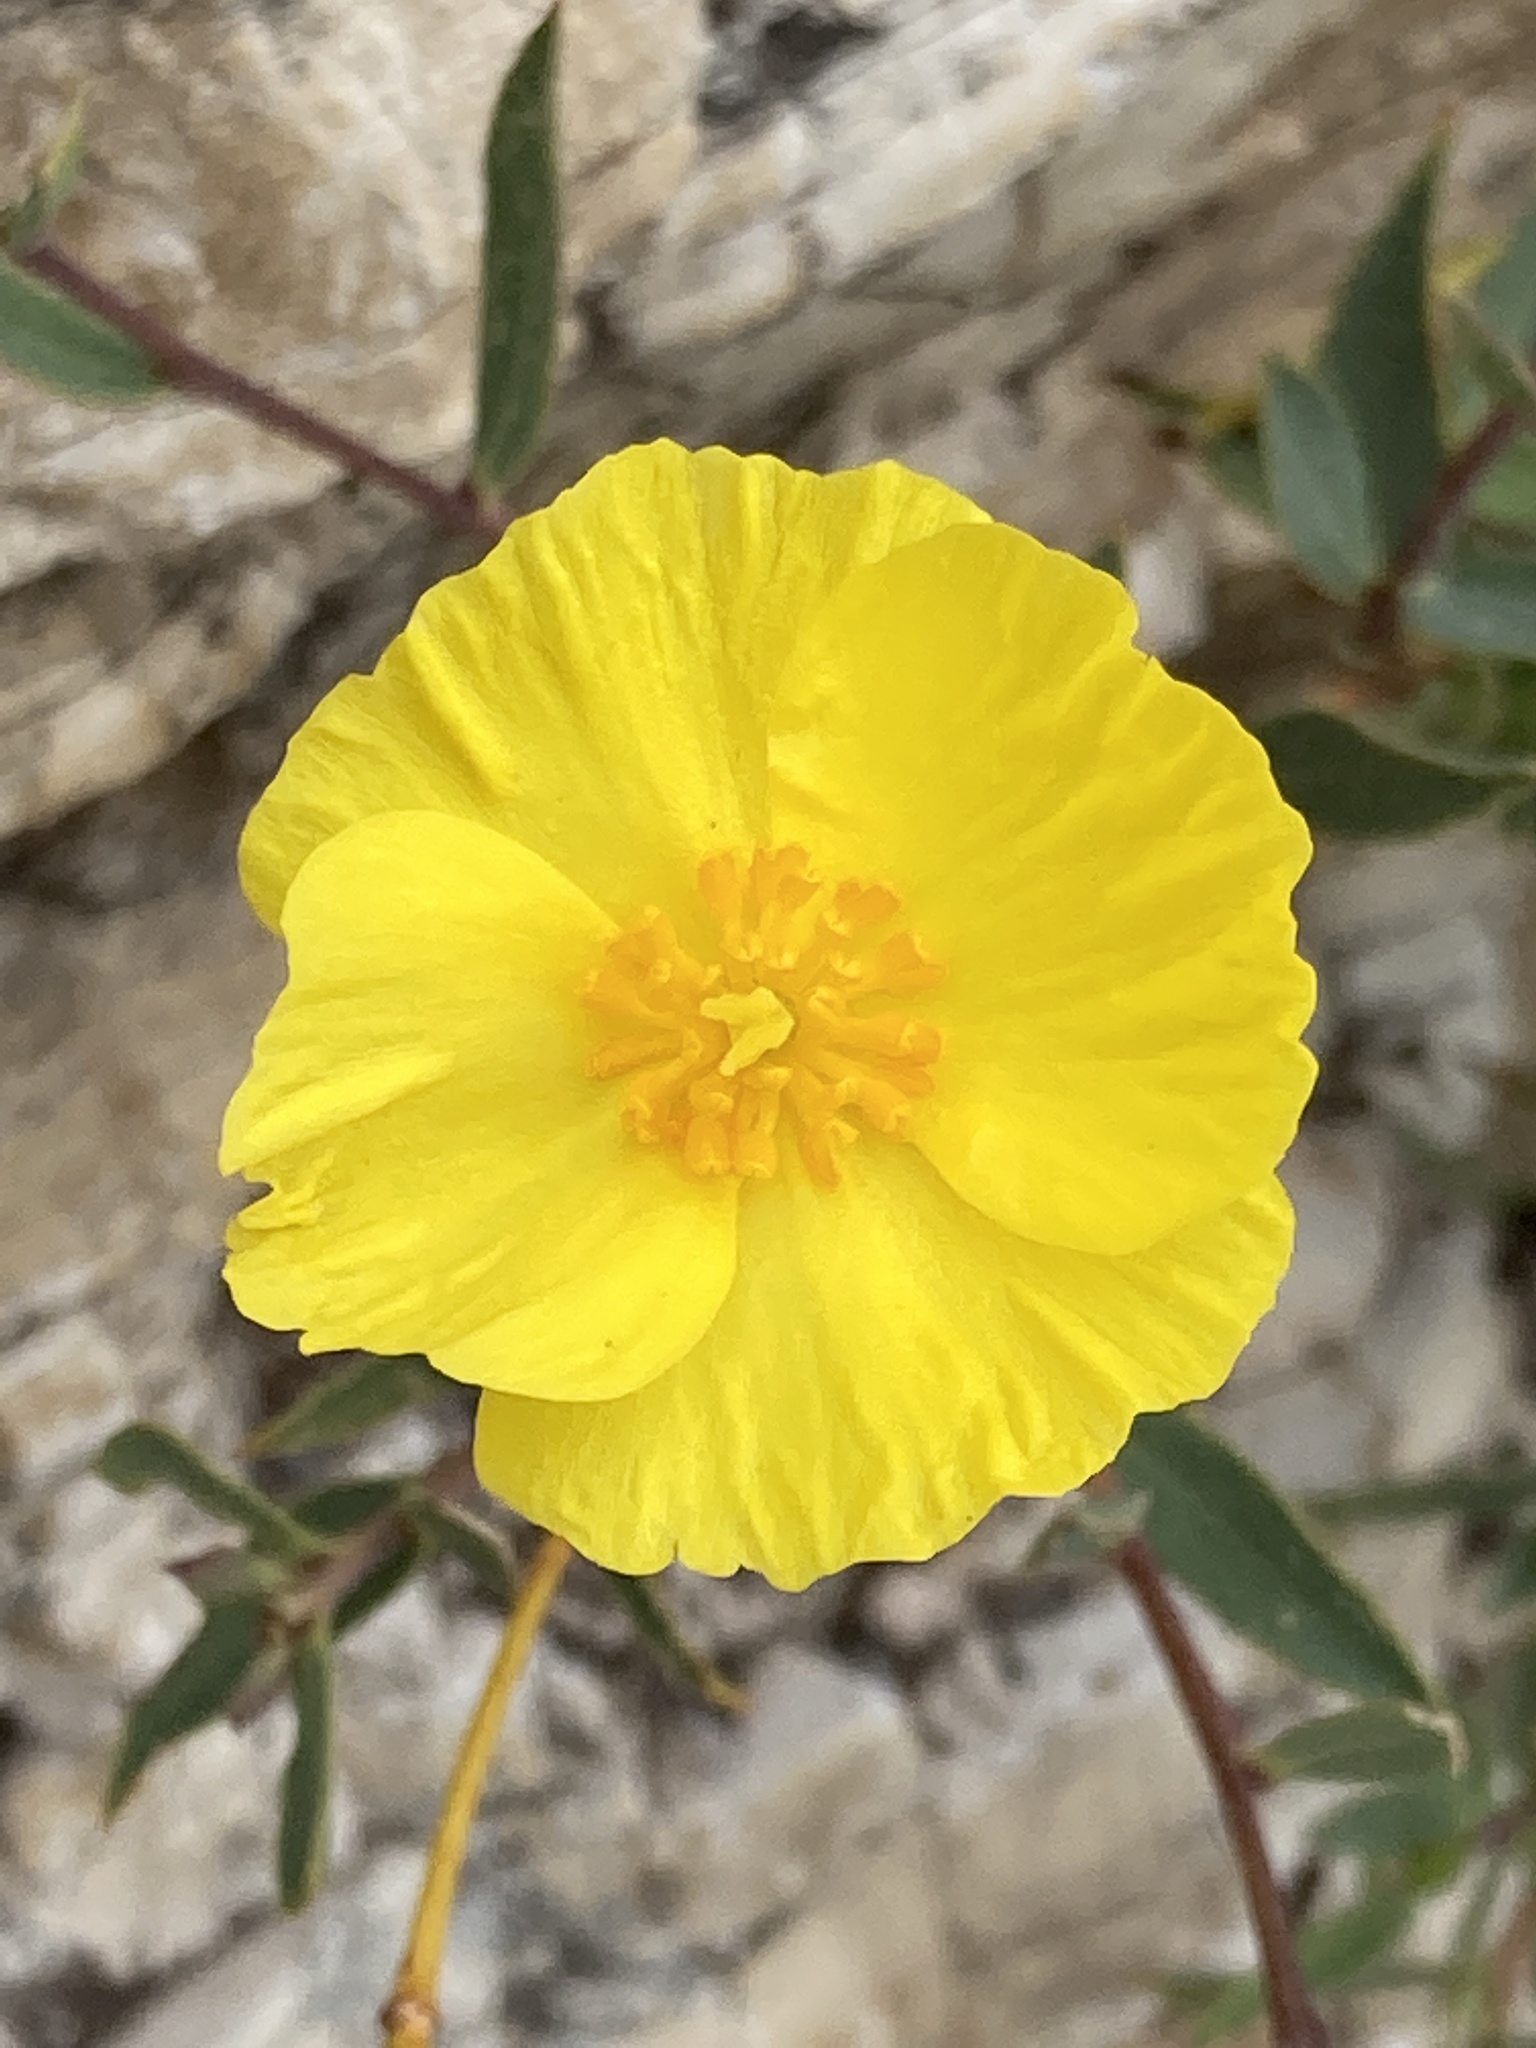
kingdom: Plantae
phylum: Tracheophyta
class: Magnoliopsida
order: Ranunculales
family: Papaveraceae
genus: Dendromecon
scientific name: Dendromecon rigida
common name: Tree poppy
